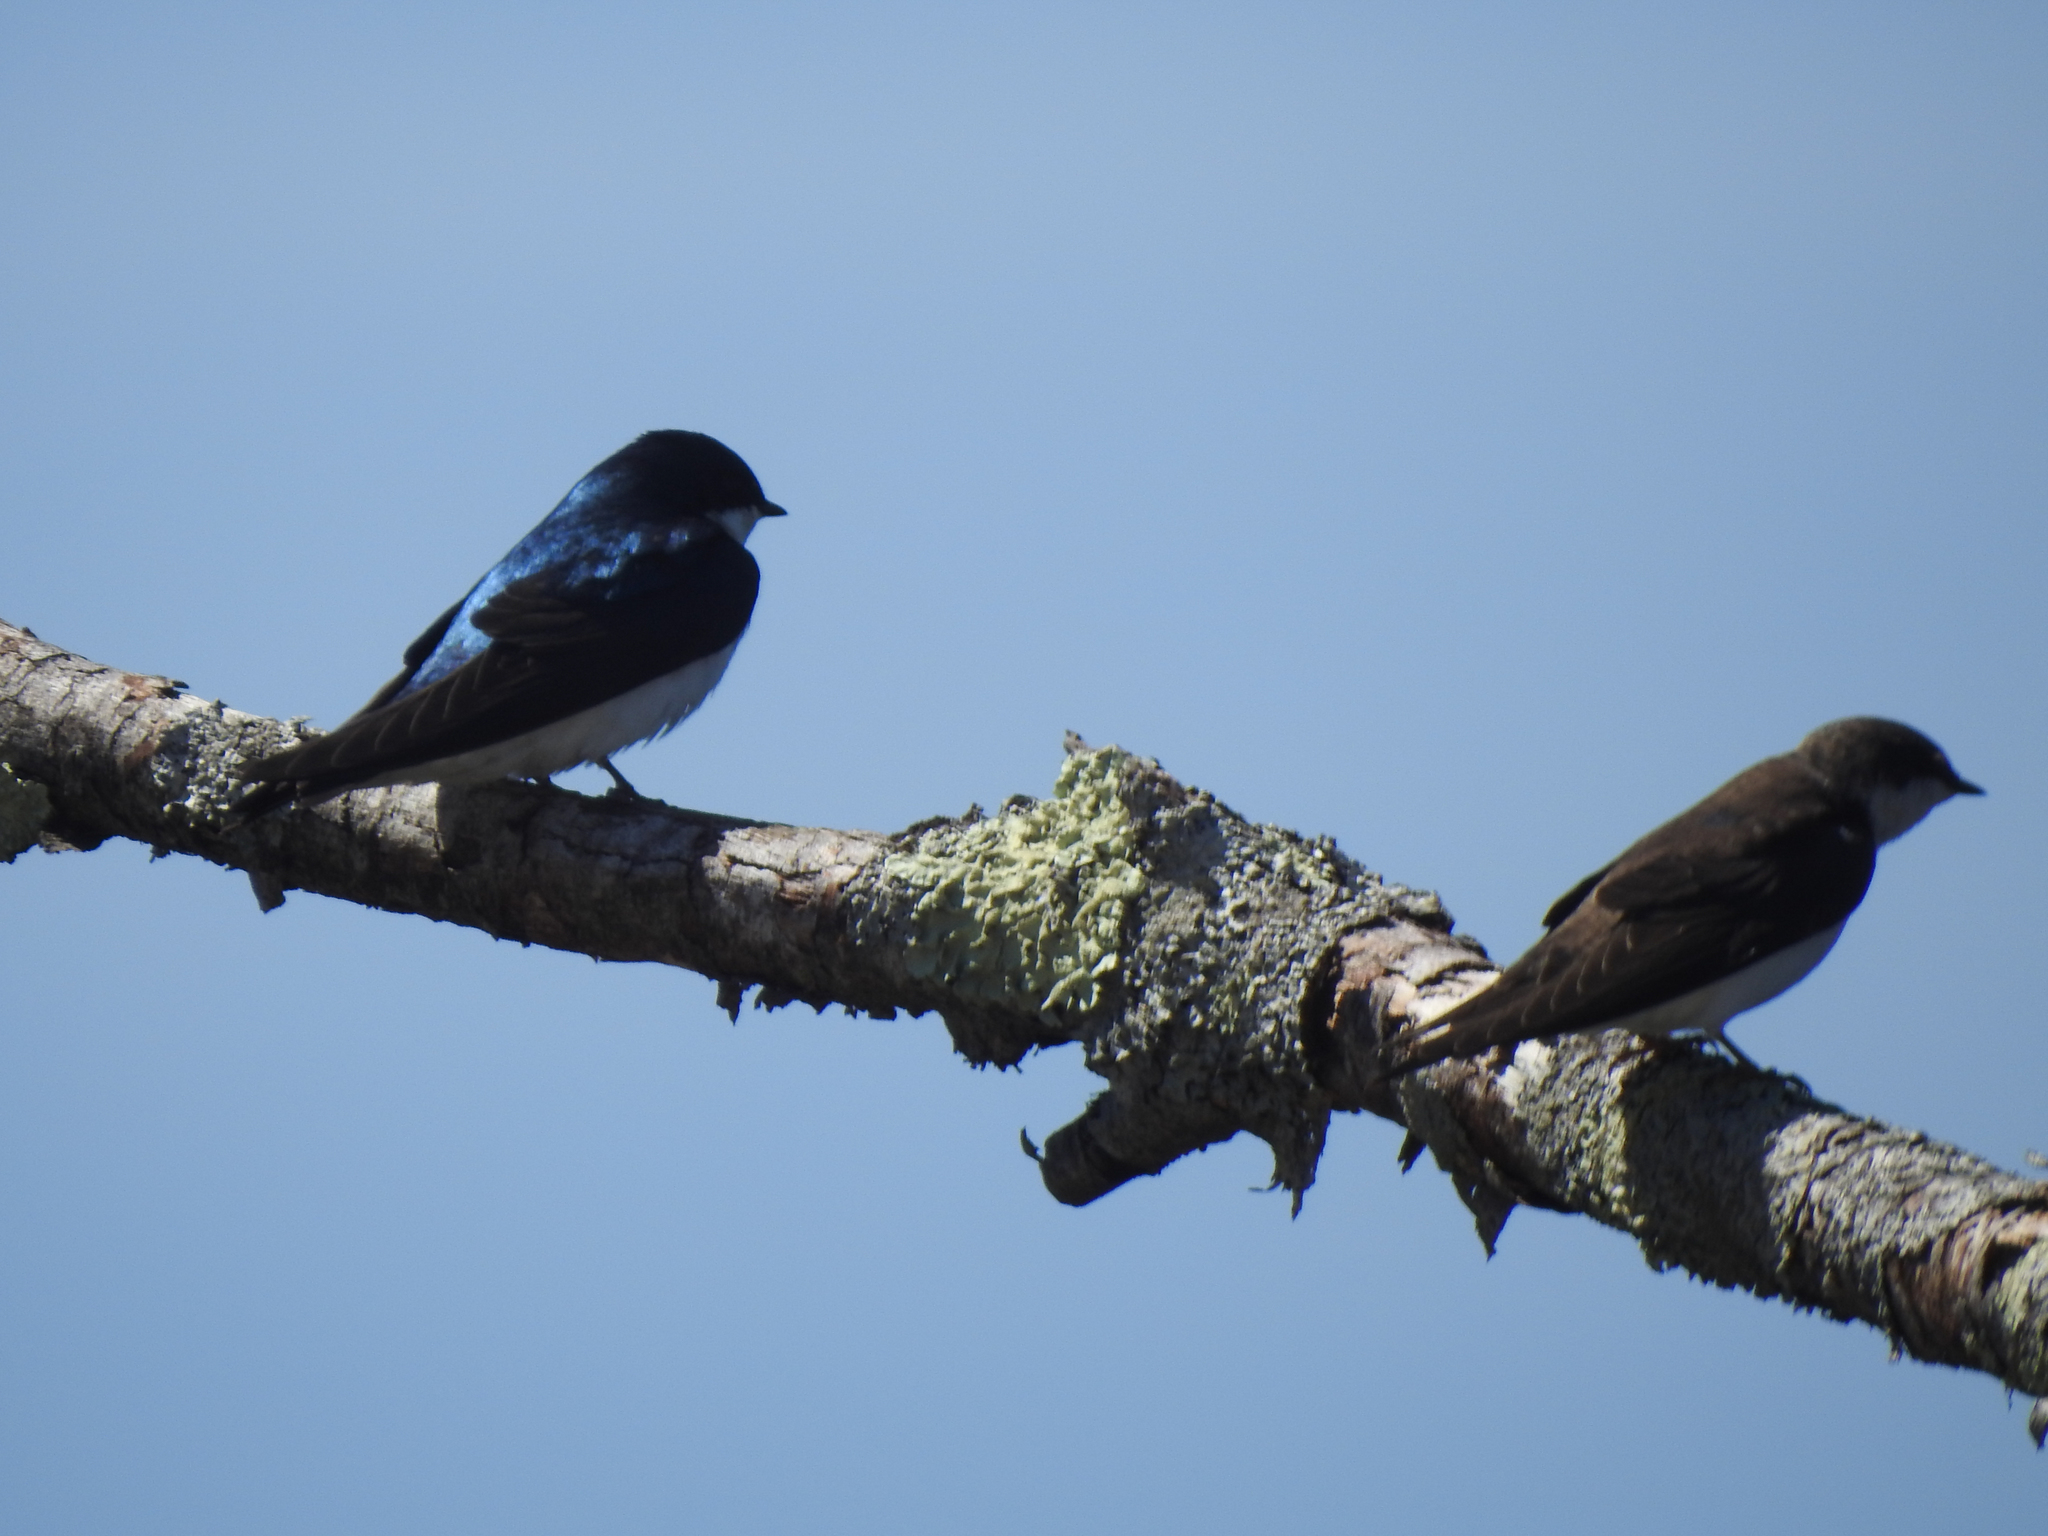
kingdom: Animalia
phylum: Chordata
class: Aves
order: Passeriformes
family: Hirundinidae
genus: Tachycineta
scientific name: Tachycineta bicolor
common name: Tree swallow
